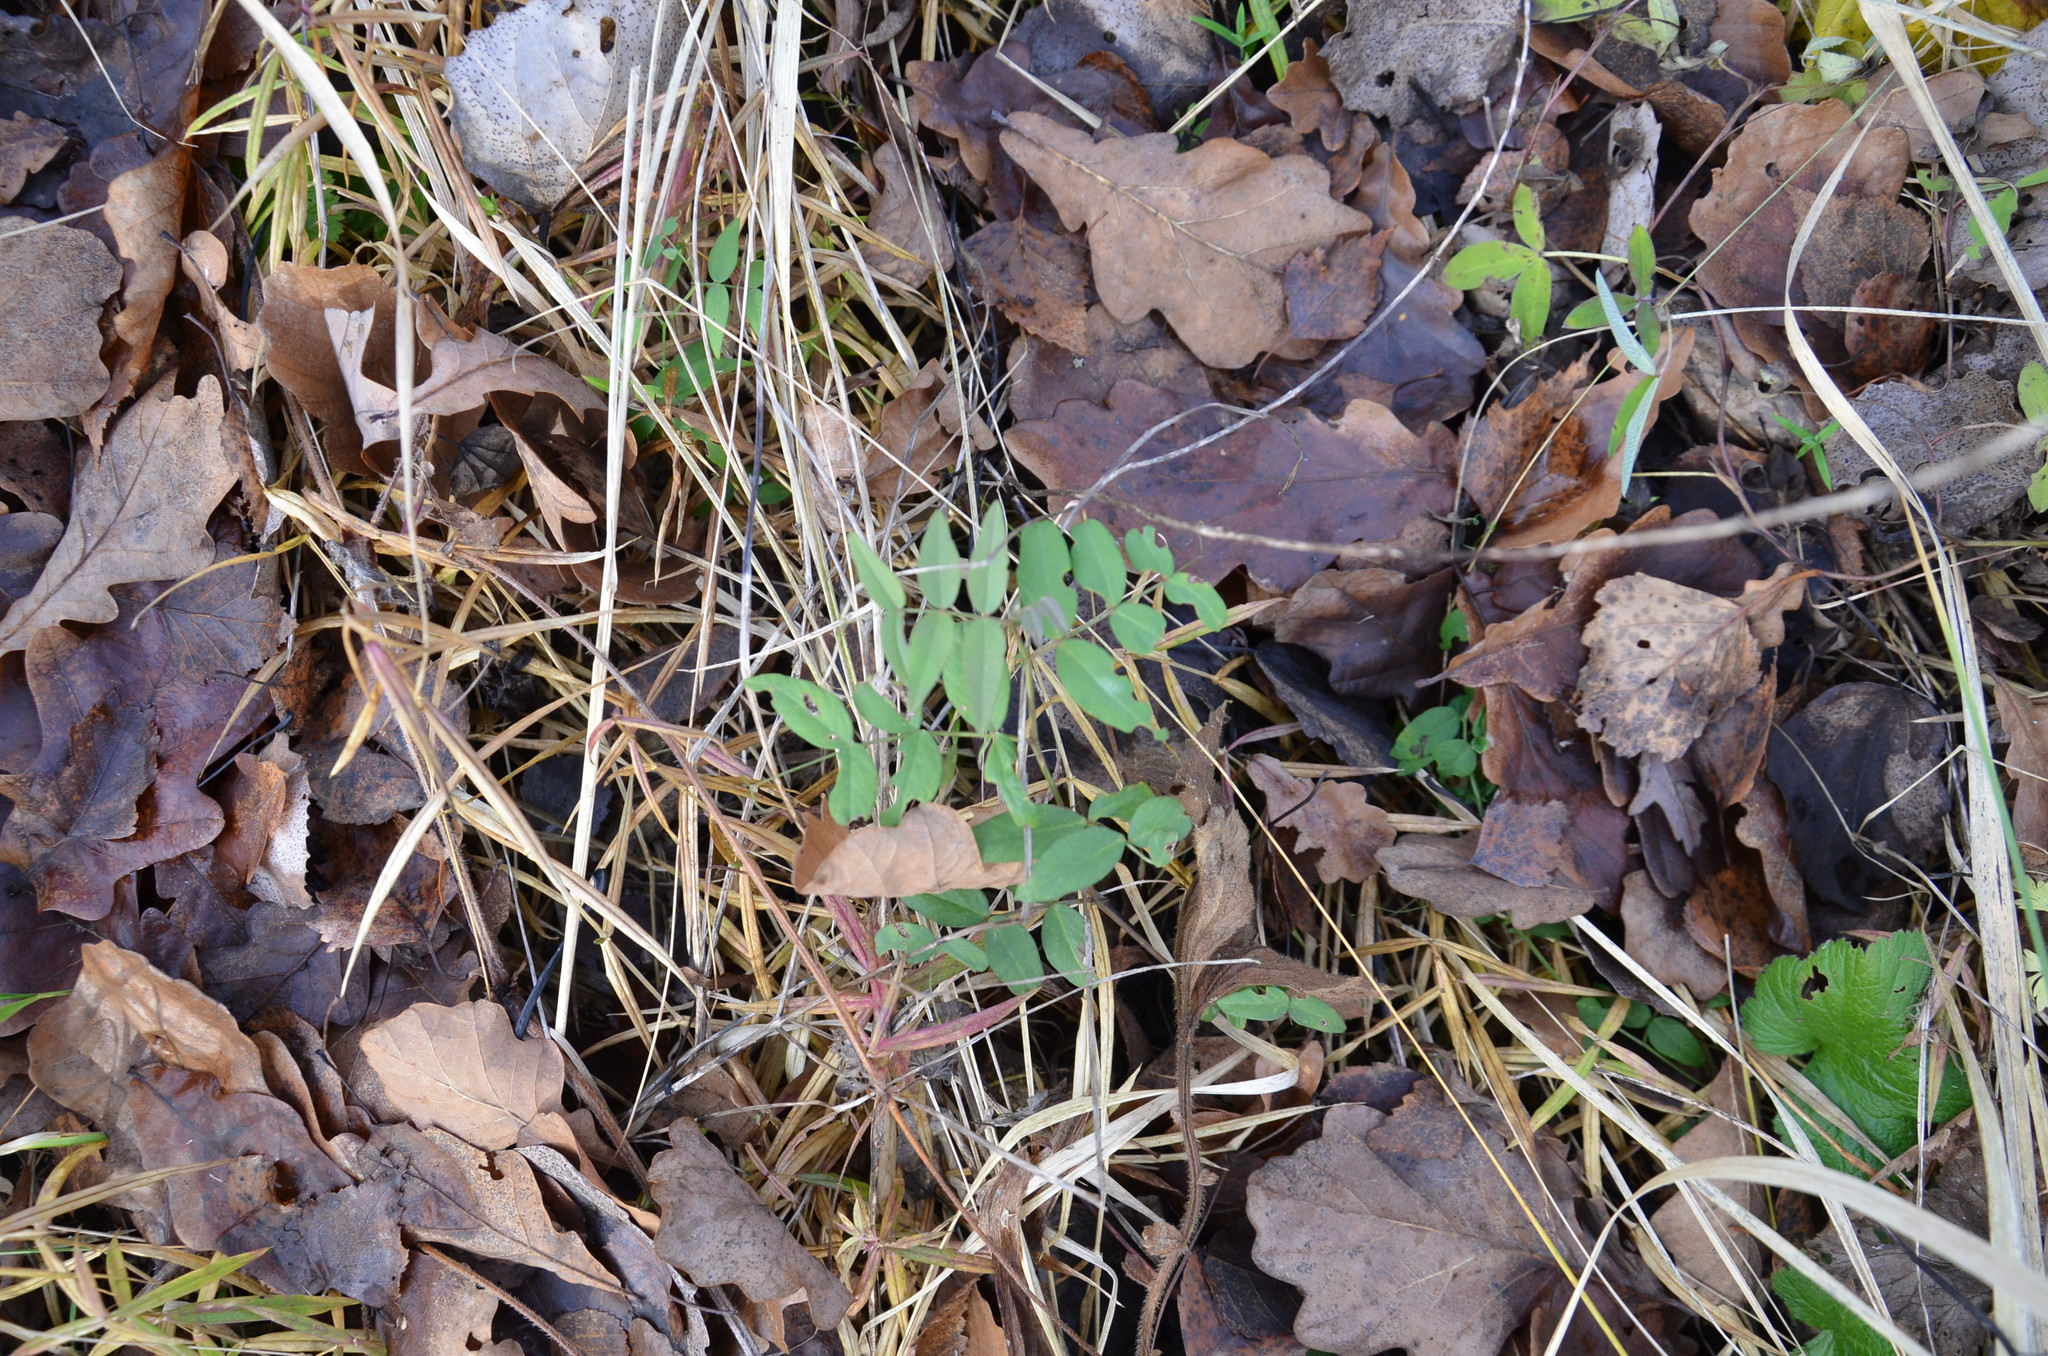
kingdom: Plantae
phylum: Tracheophyta
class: Magnoliopsida
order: Fabales
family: Fabaceae
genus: Vicia
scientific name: Vicia sepium
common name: Bush vetch
